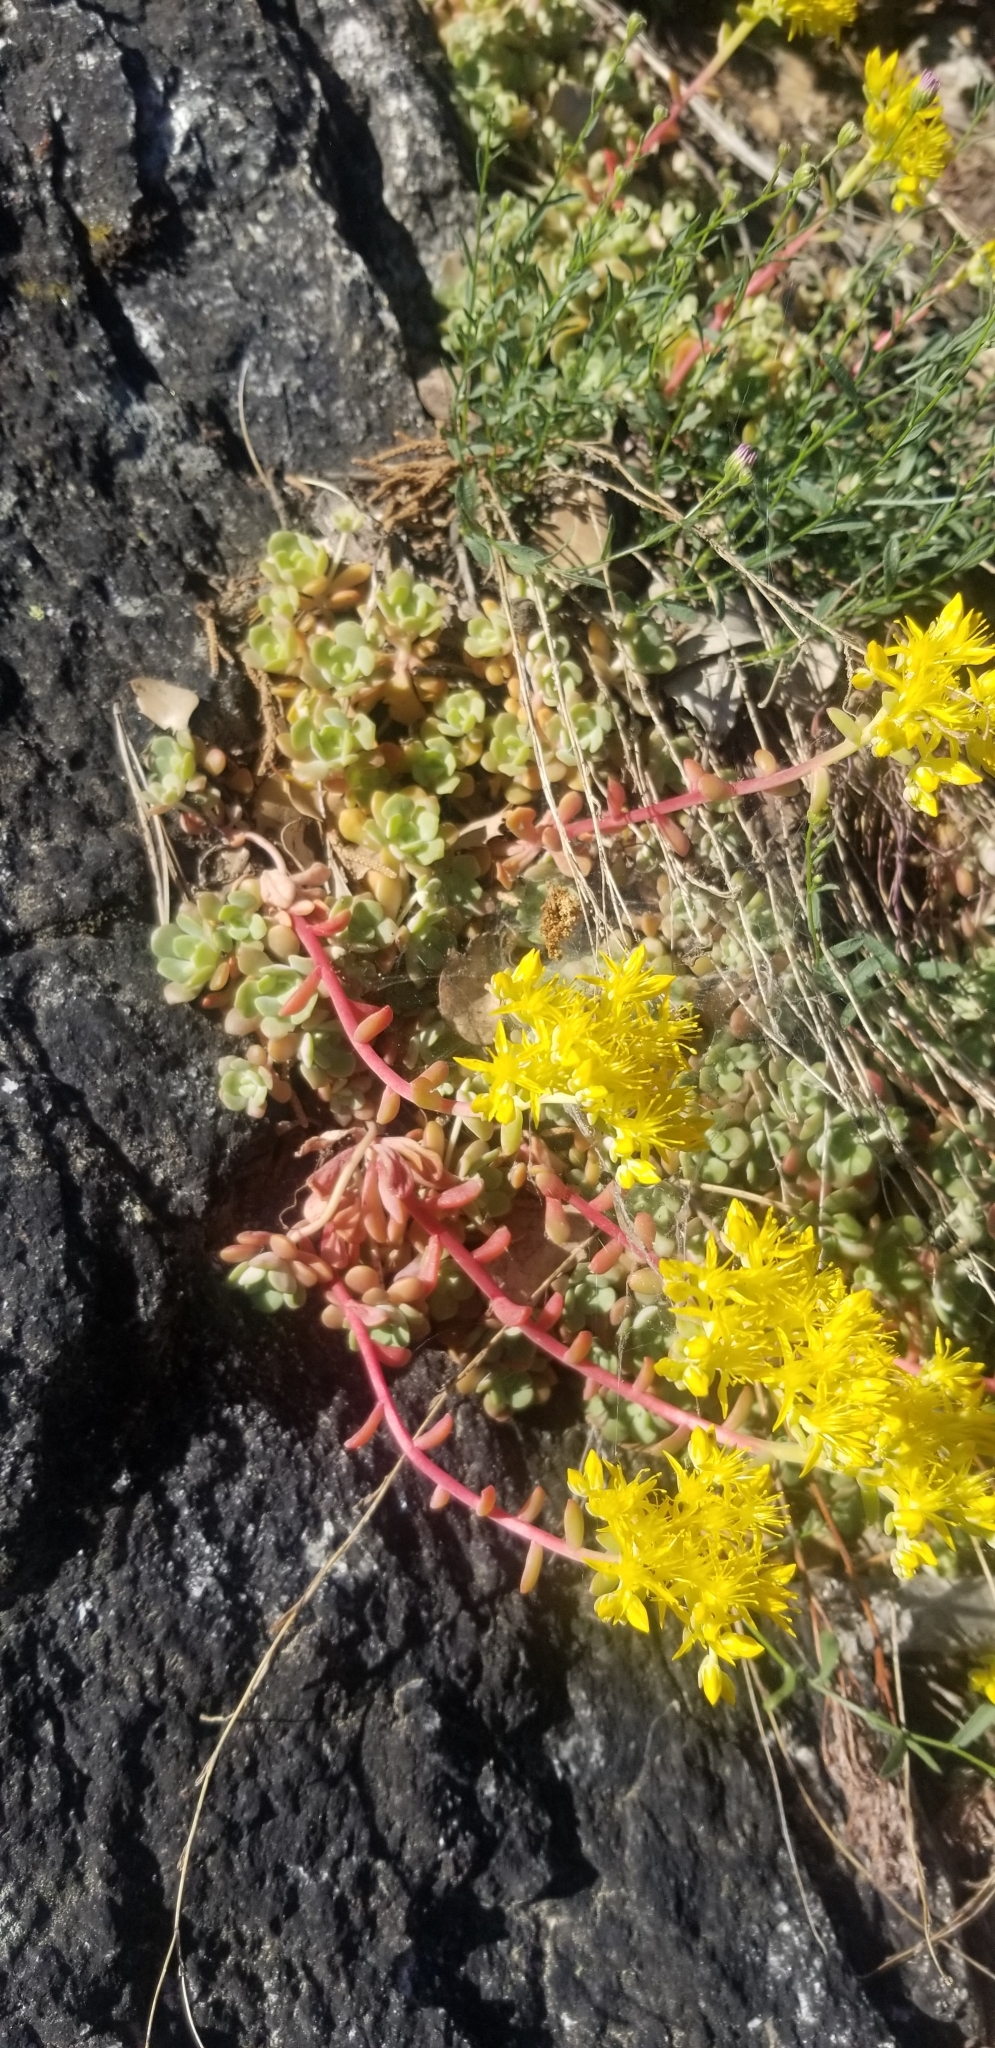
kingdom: Plantae
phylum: Tracheophyta
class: Magnoliopsida
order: Saxifragales
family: Crassulaceae
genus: Sedum
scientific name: Sedum spathulifolium
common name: Colorado stonecrop
